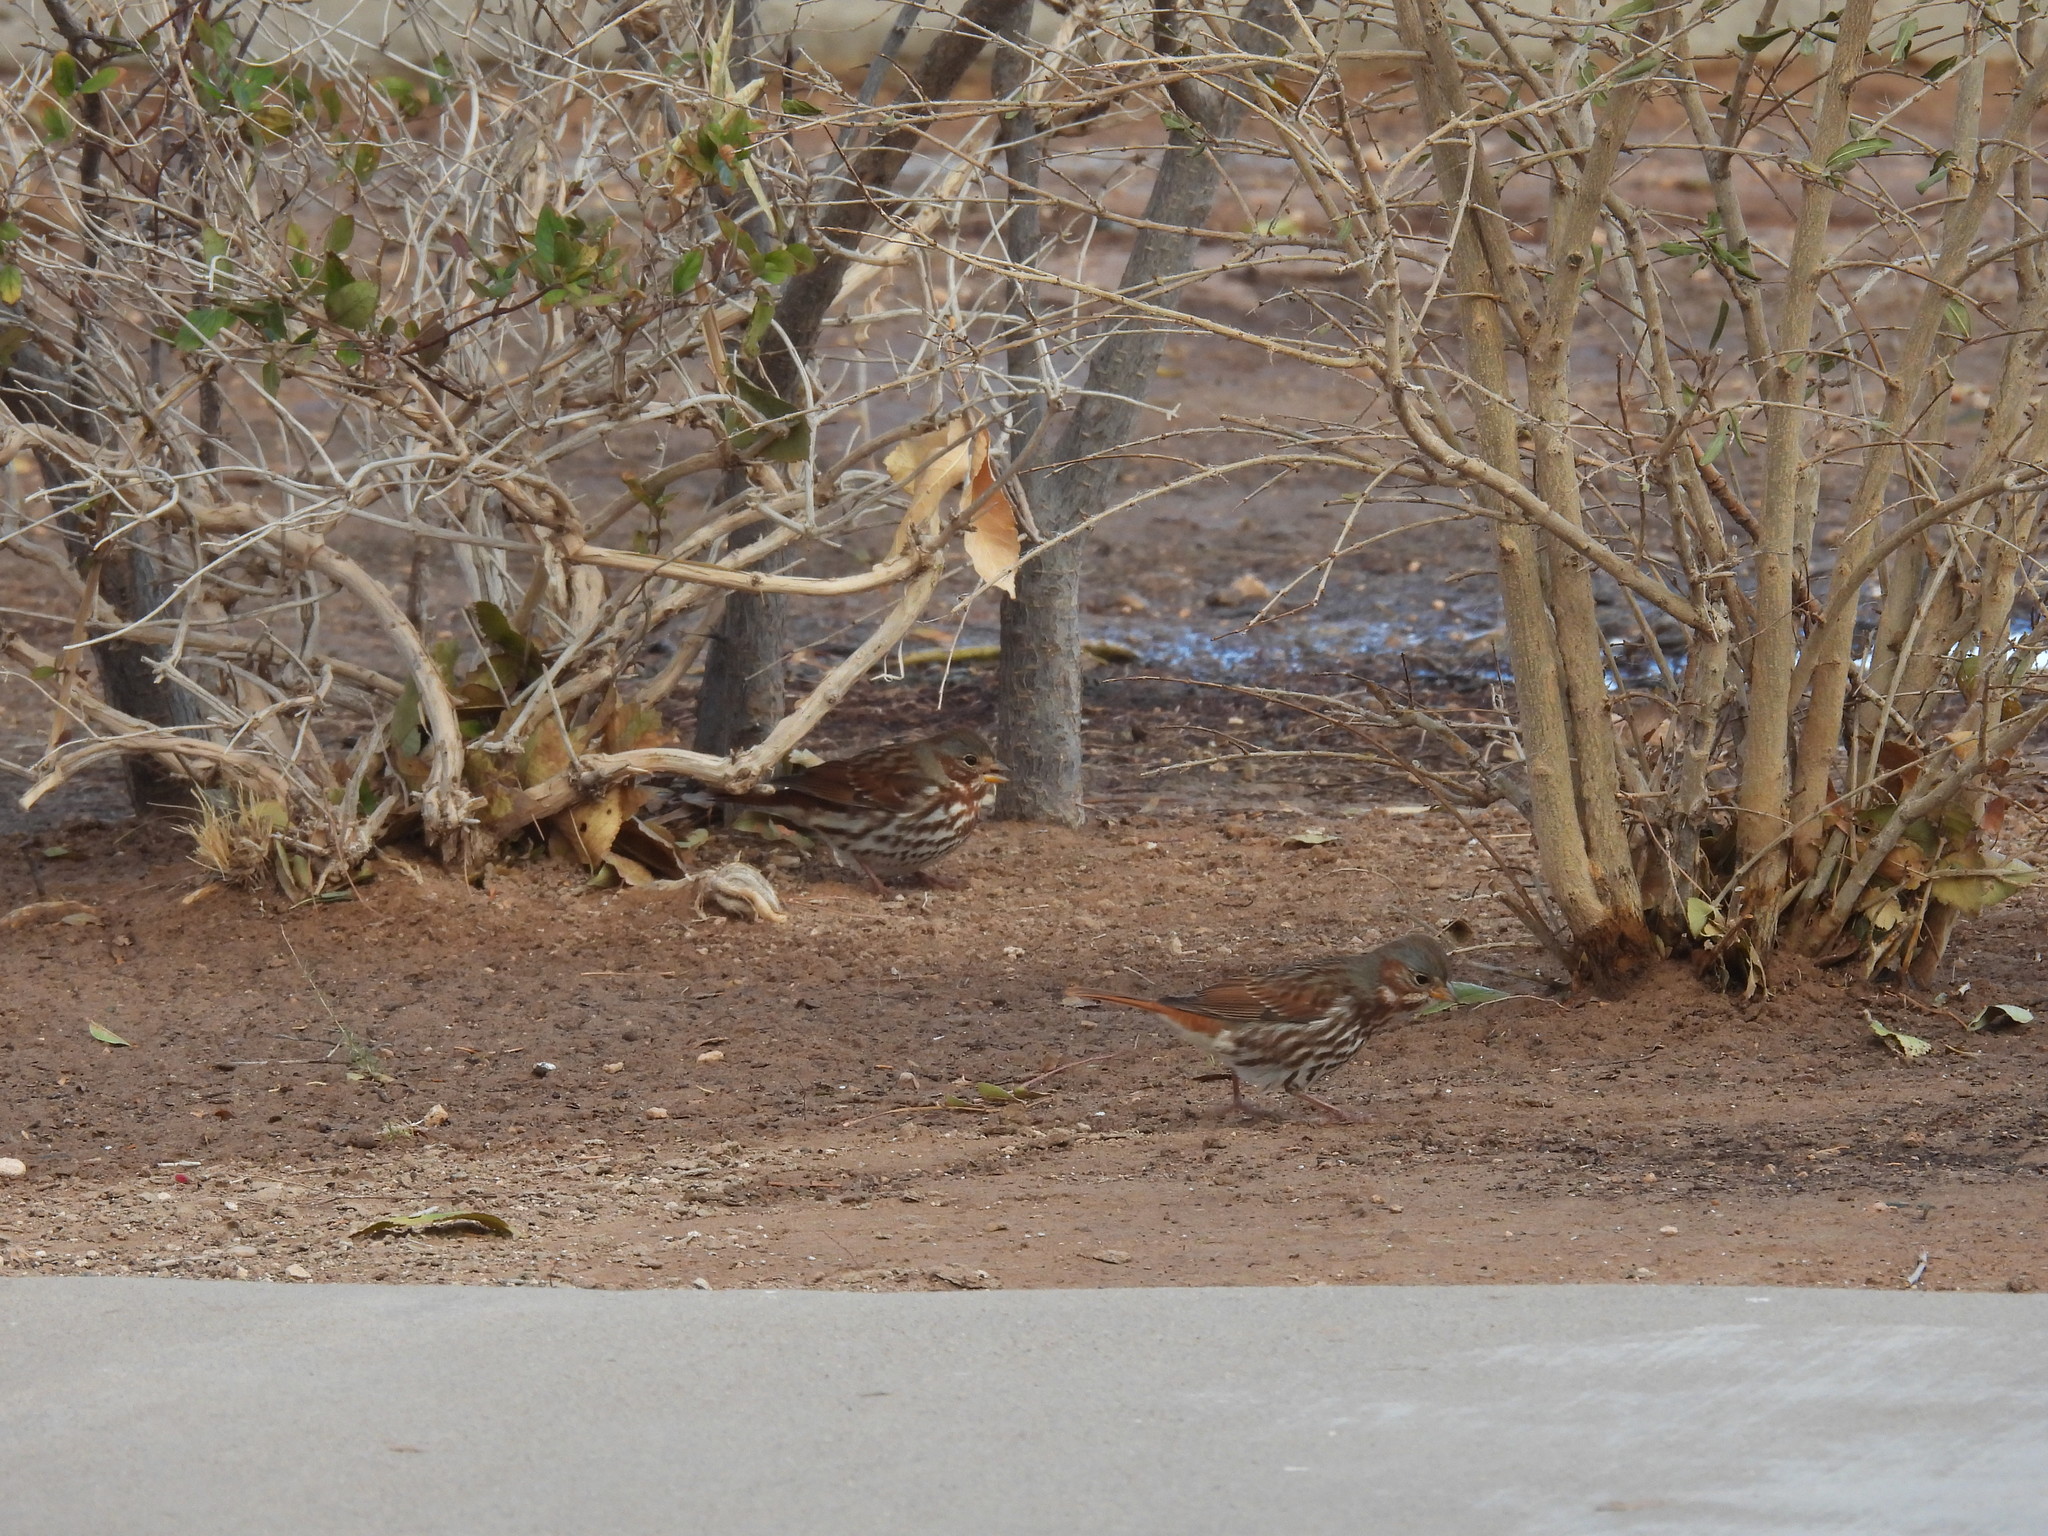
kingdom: Animalia
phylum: Chordata
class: Aves
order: Passeriformes
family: Passerellidae
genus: Passerella
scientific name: Passerella iliaca
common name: Fox sparrow
